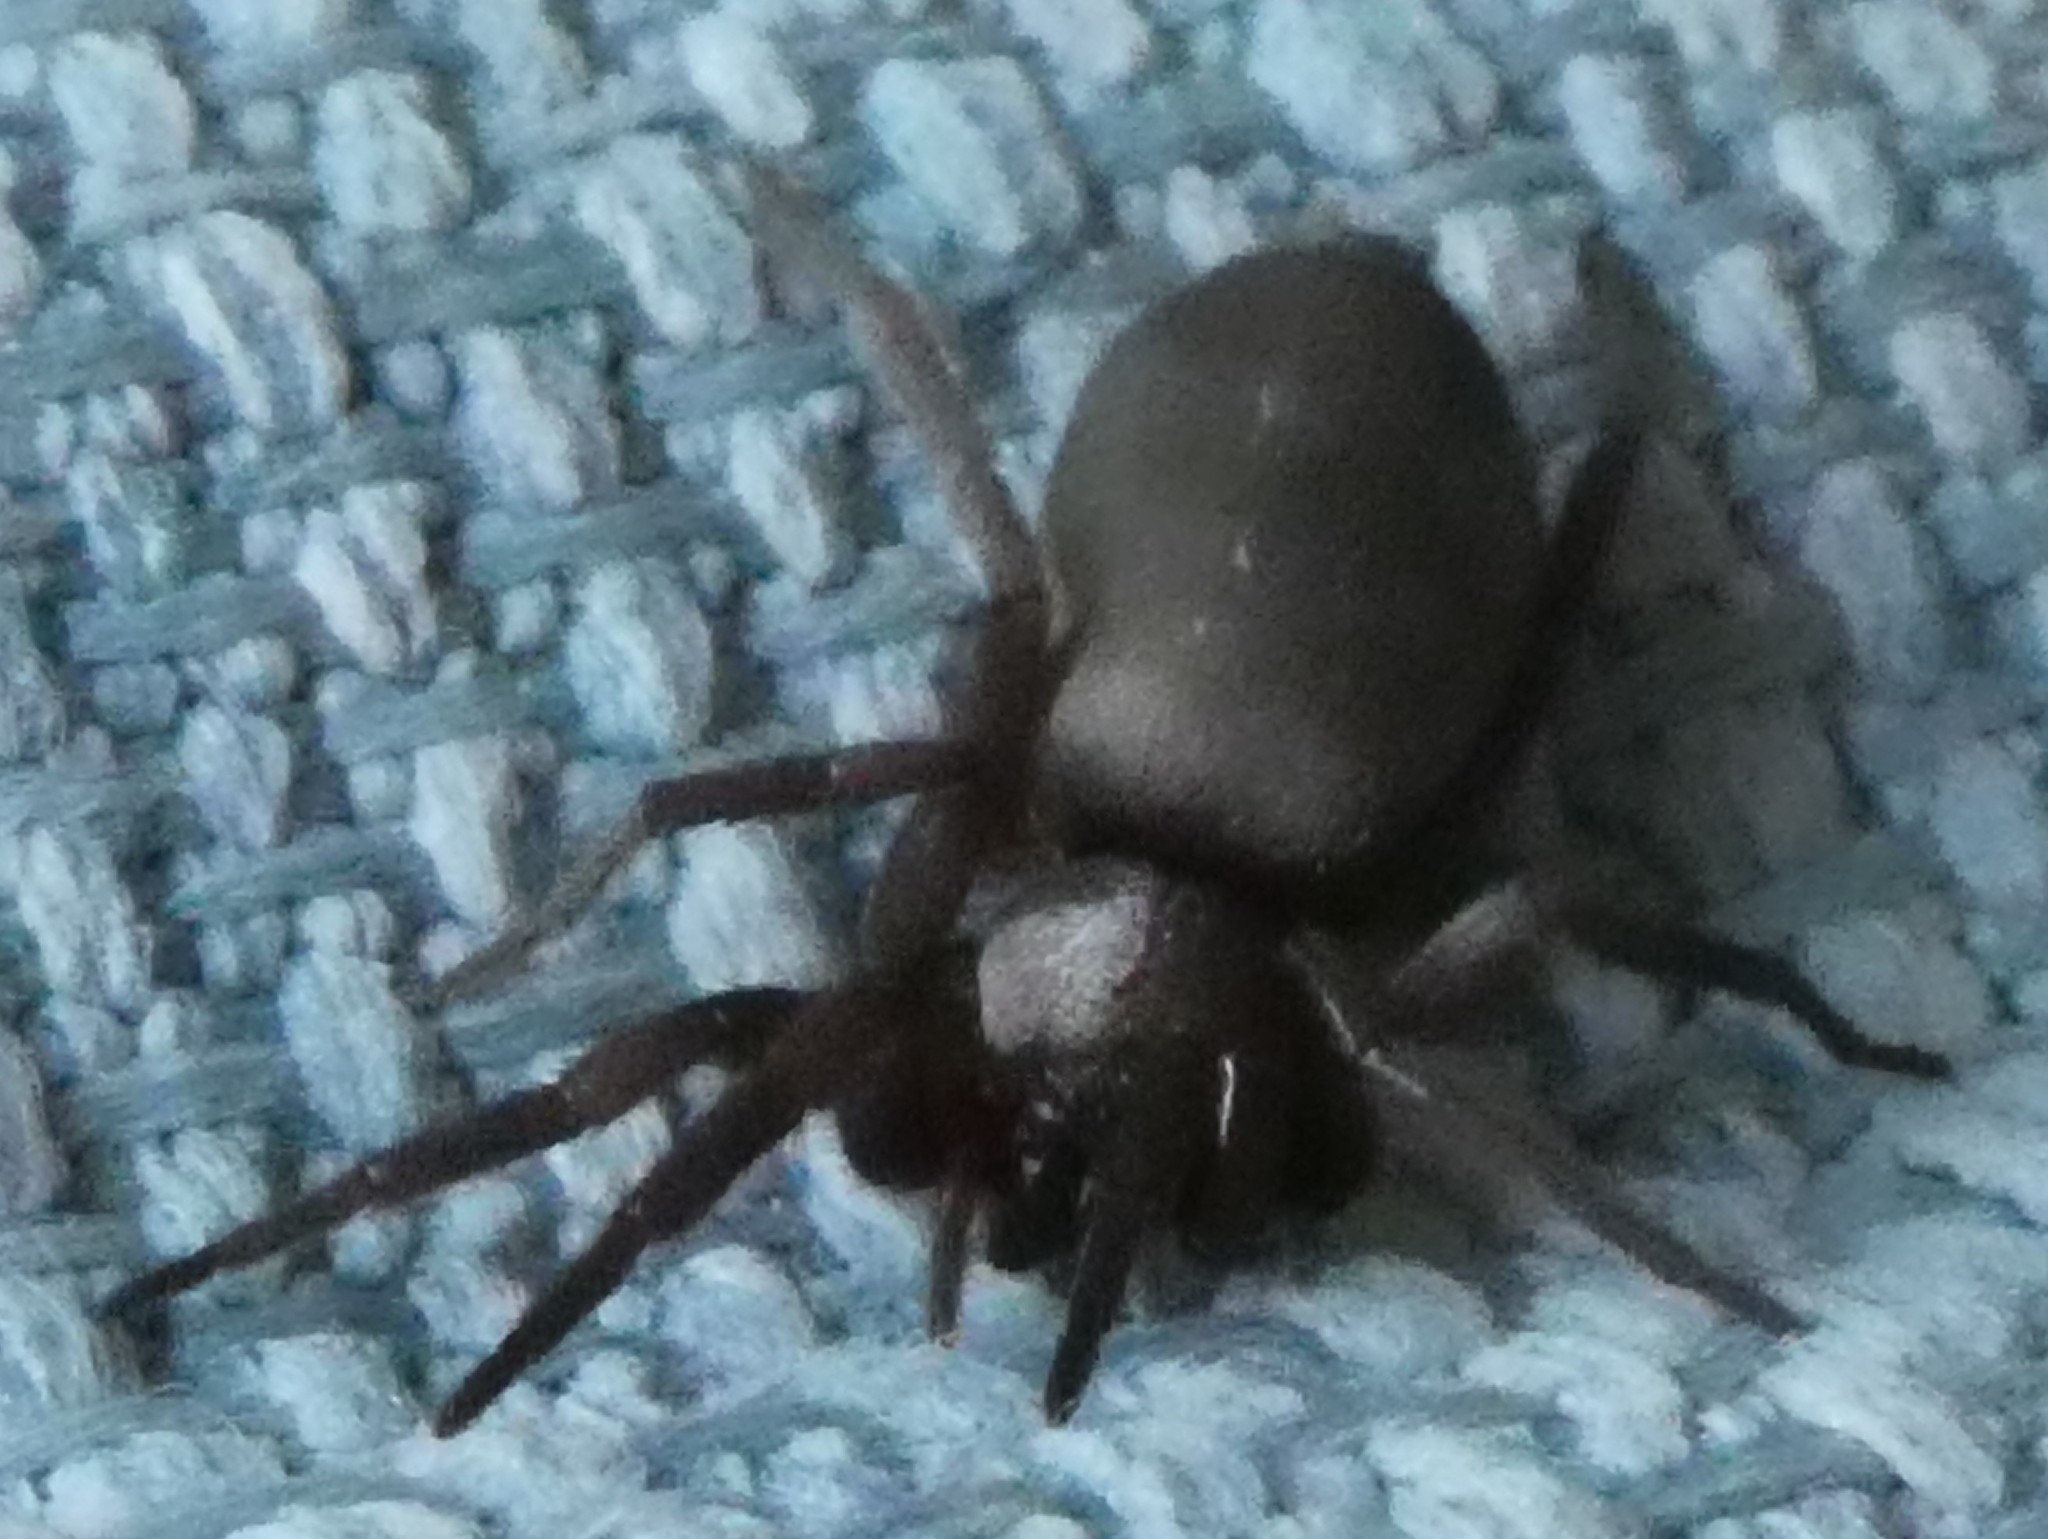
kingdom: Animalia
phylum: Arthropoda
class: Arachnida
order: Araneae
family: Gnaphosidae
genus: Scotophaeus
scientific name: Scotophaeus blackwalli
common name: Mouse spider
